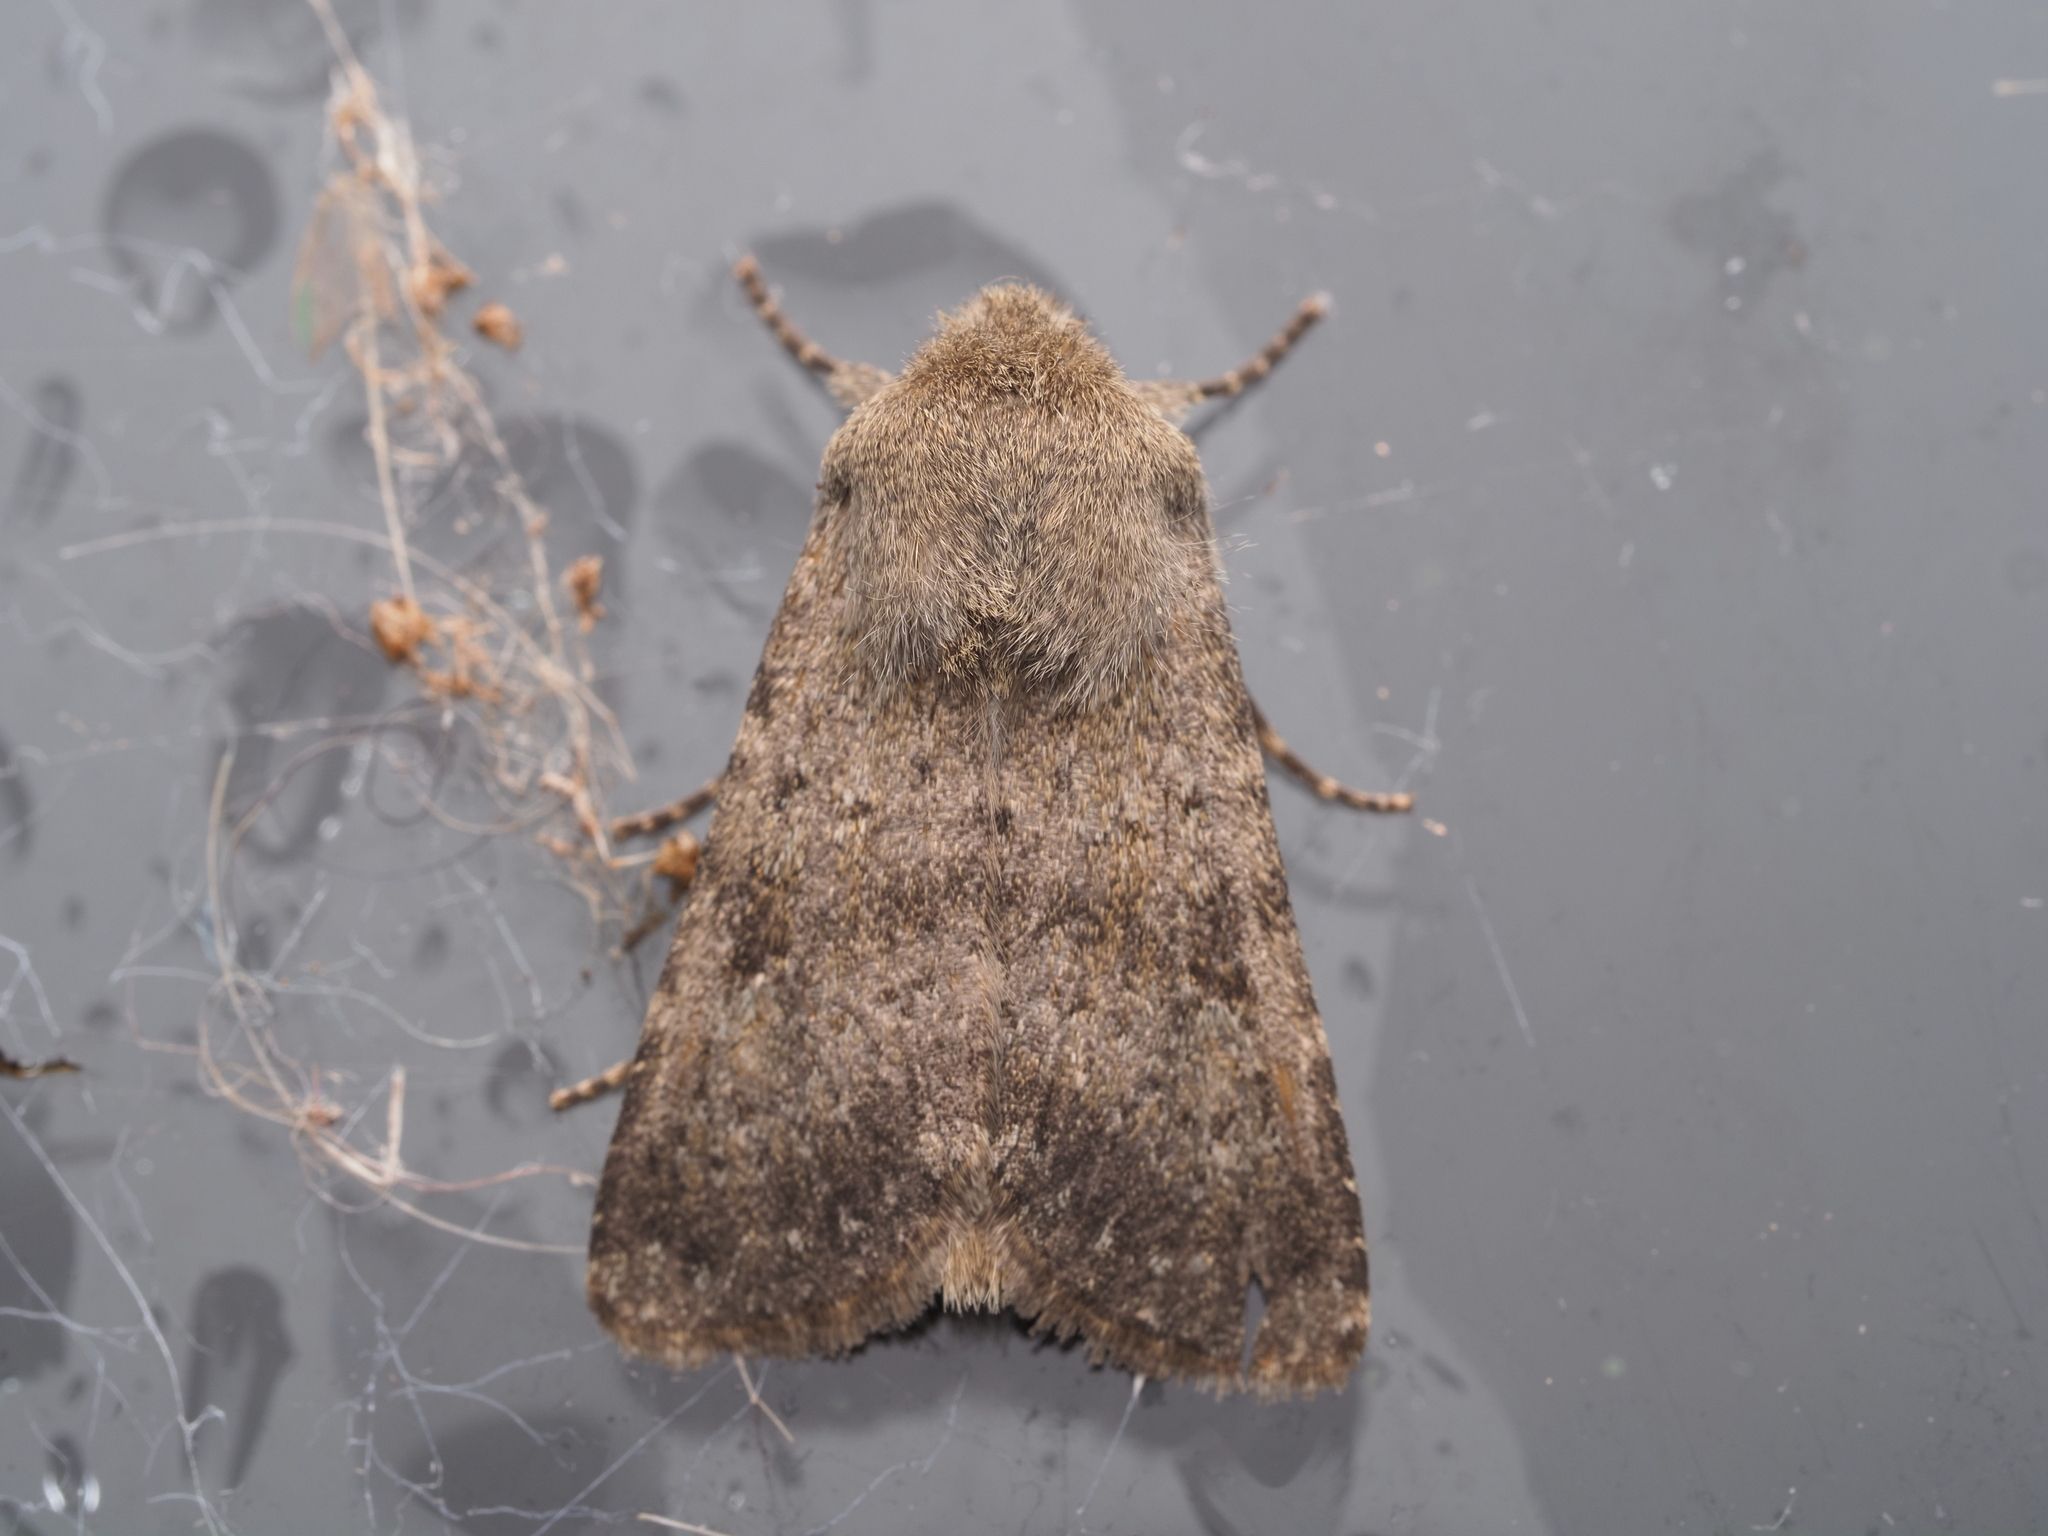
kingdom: Animalia
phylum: Arthropoda
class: Insecta
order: Lepidoptera
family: Noctuidae
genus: Ichneutica
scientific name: Ichneutica moderata
